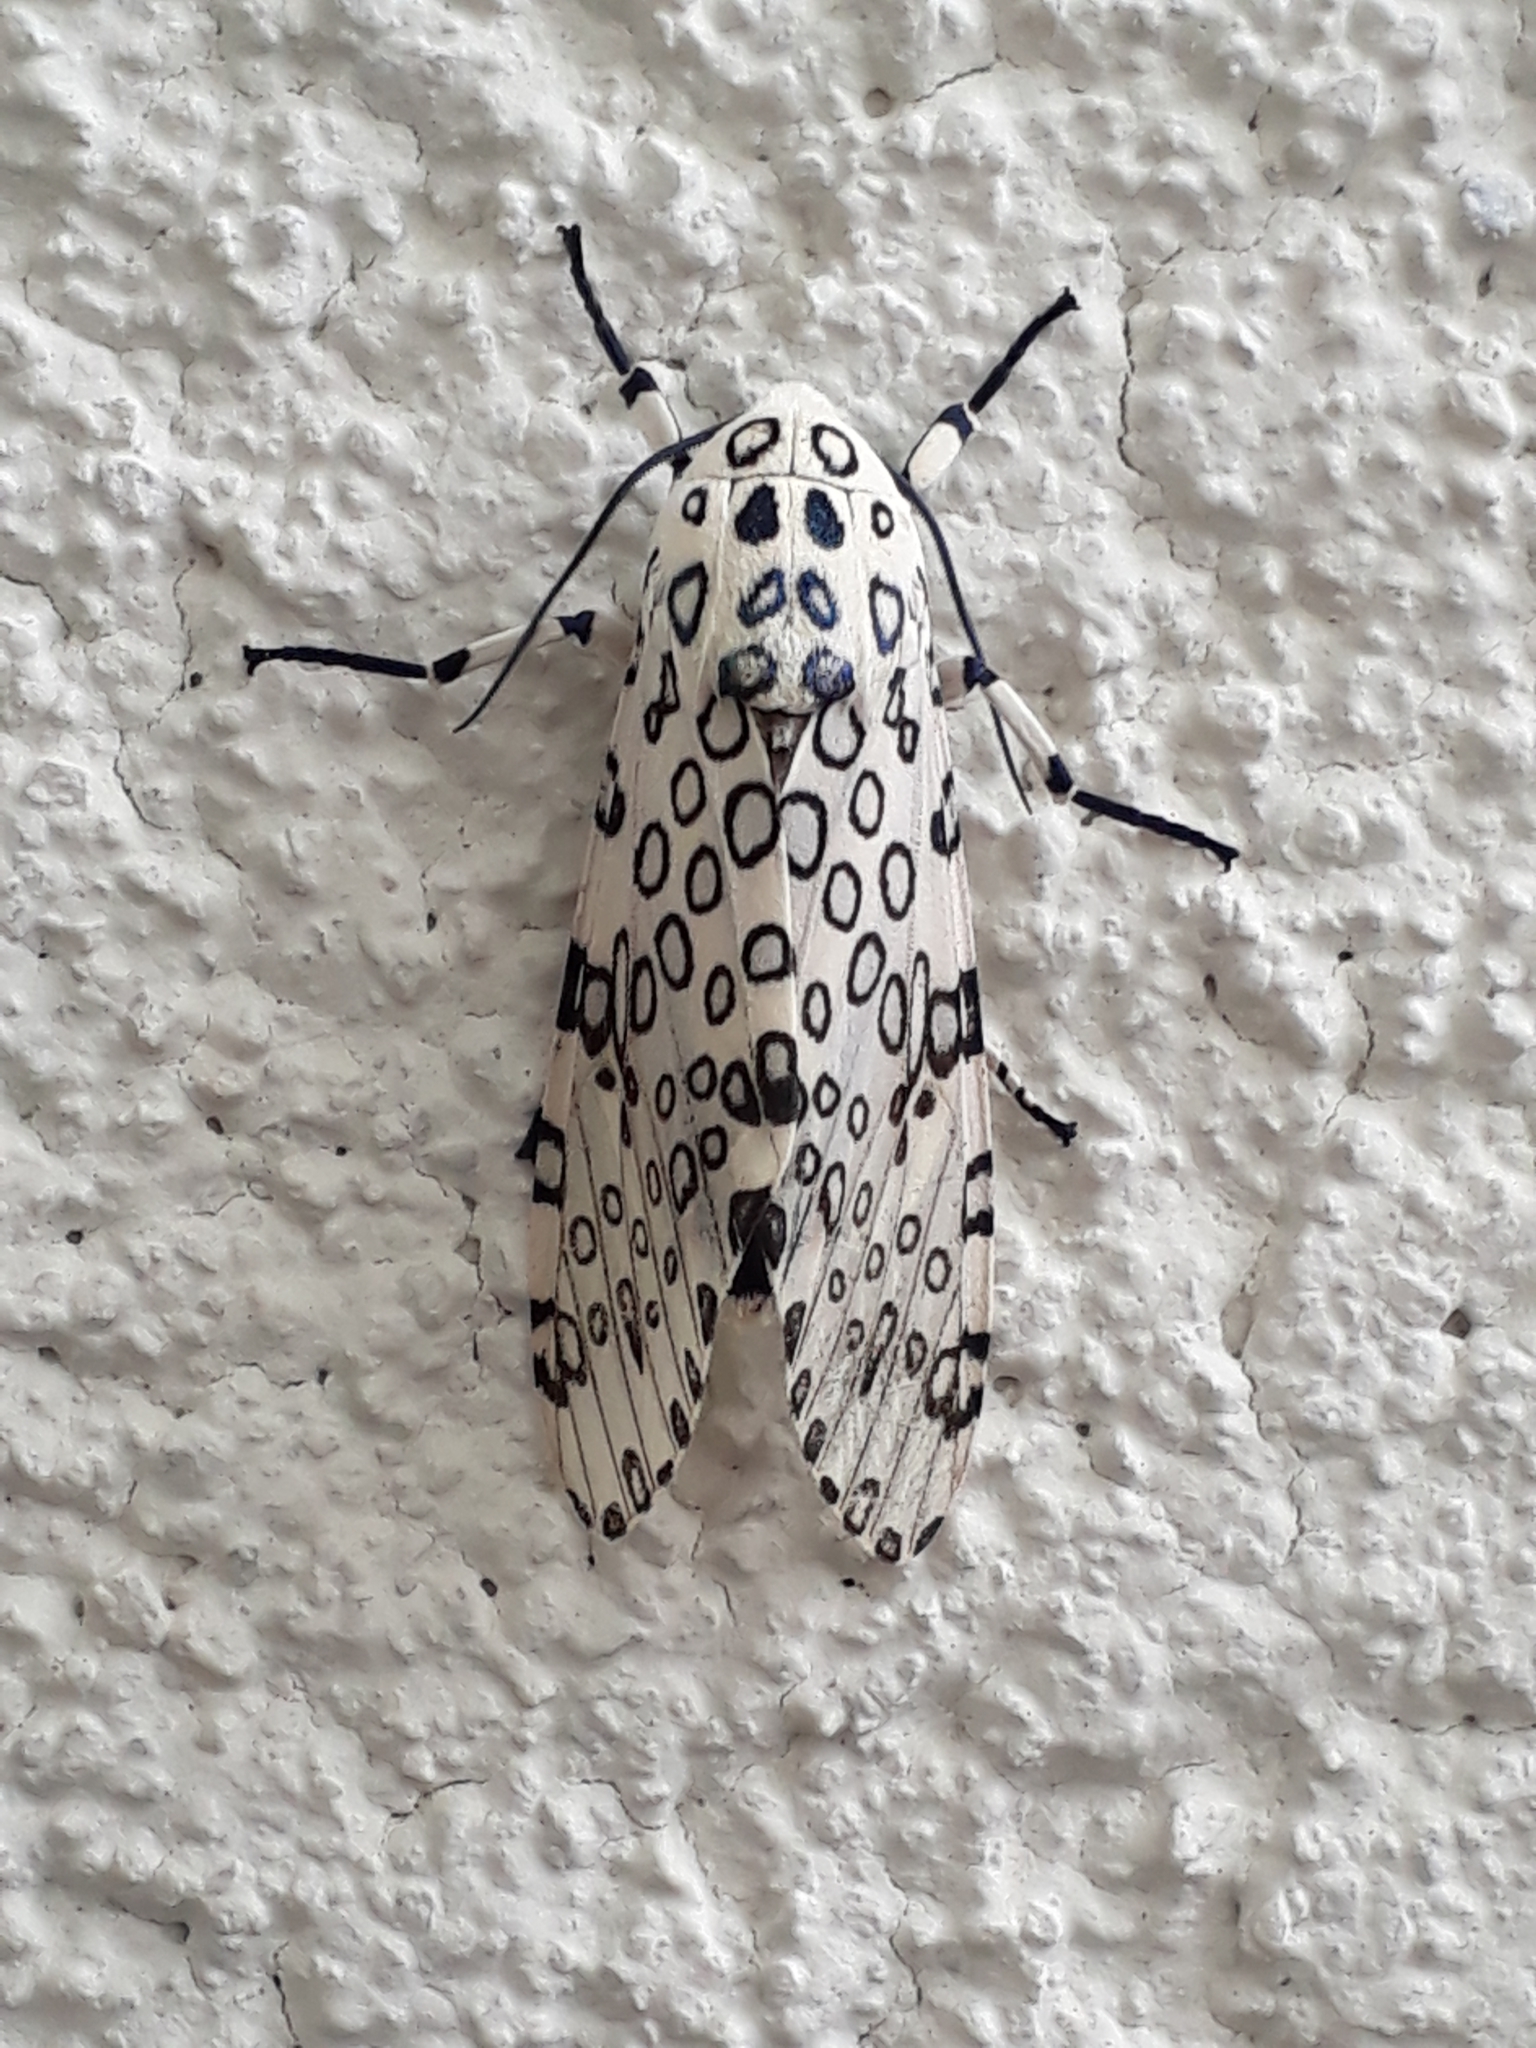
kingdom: Animalia
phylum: Arthropoda
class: Insecta
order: Lepidoptera
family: Erebidae
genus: Hypercompe
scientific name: Hypercompe scribonia
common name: Giant leopard moth
